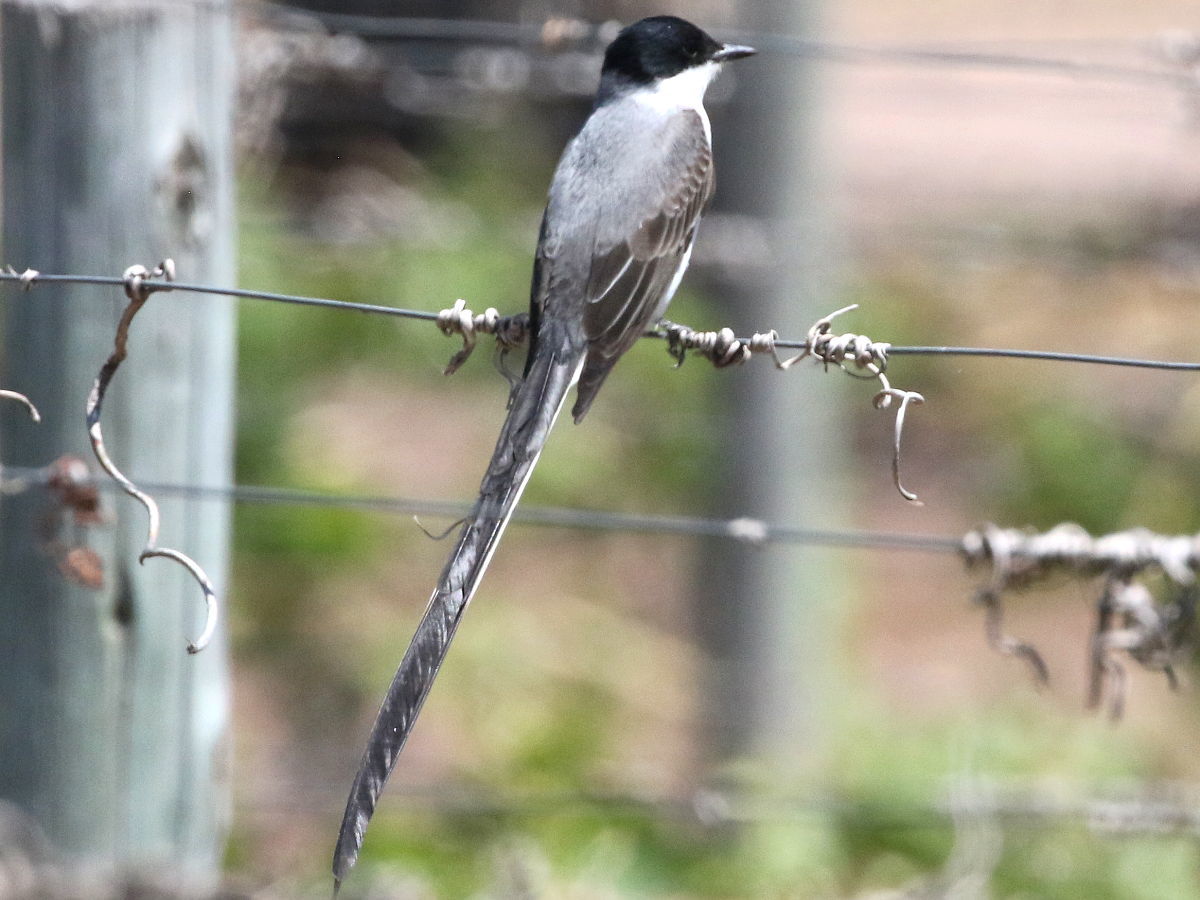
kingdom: Animalia
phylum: Chordata
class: Aves
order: Passeriformes
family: Tyrannidae
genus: Tyrannus
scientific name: Tyrannus savana
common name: Fork-tailed flycatcher
